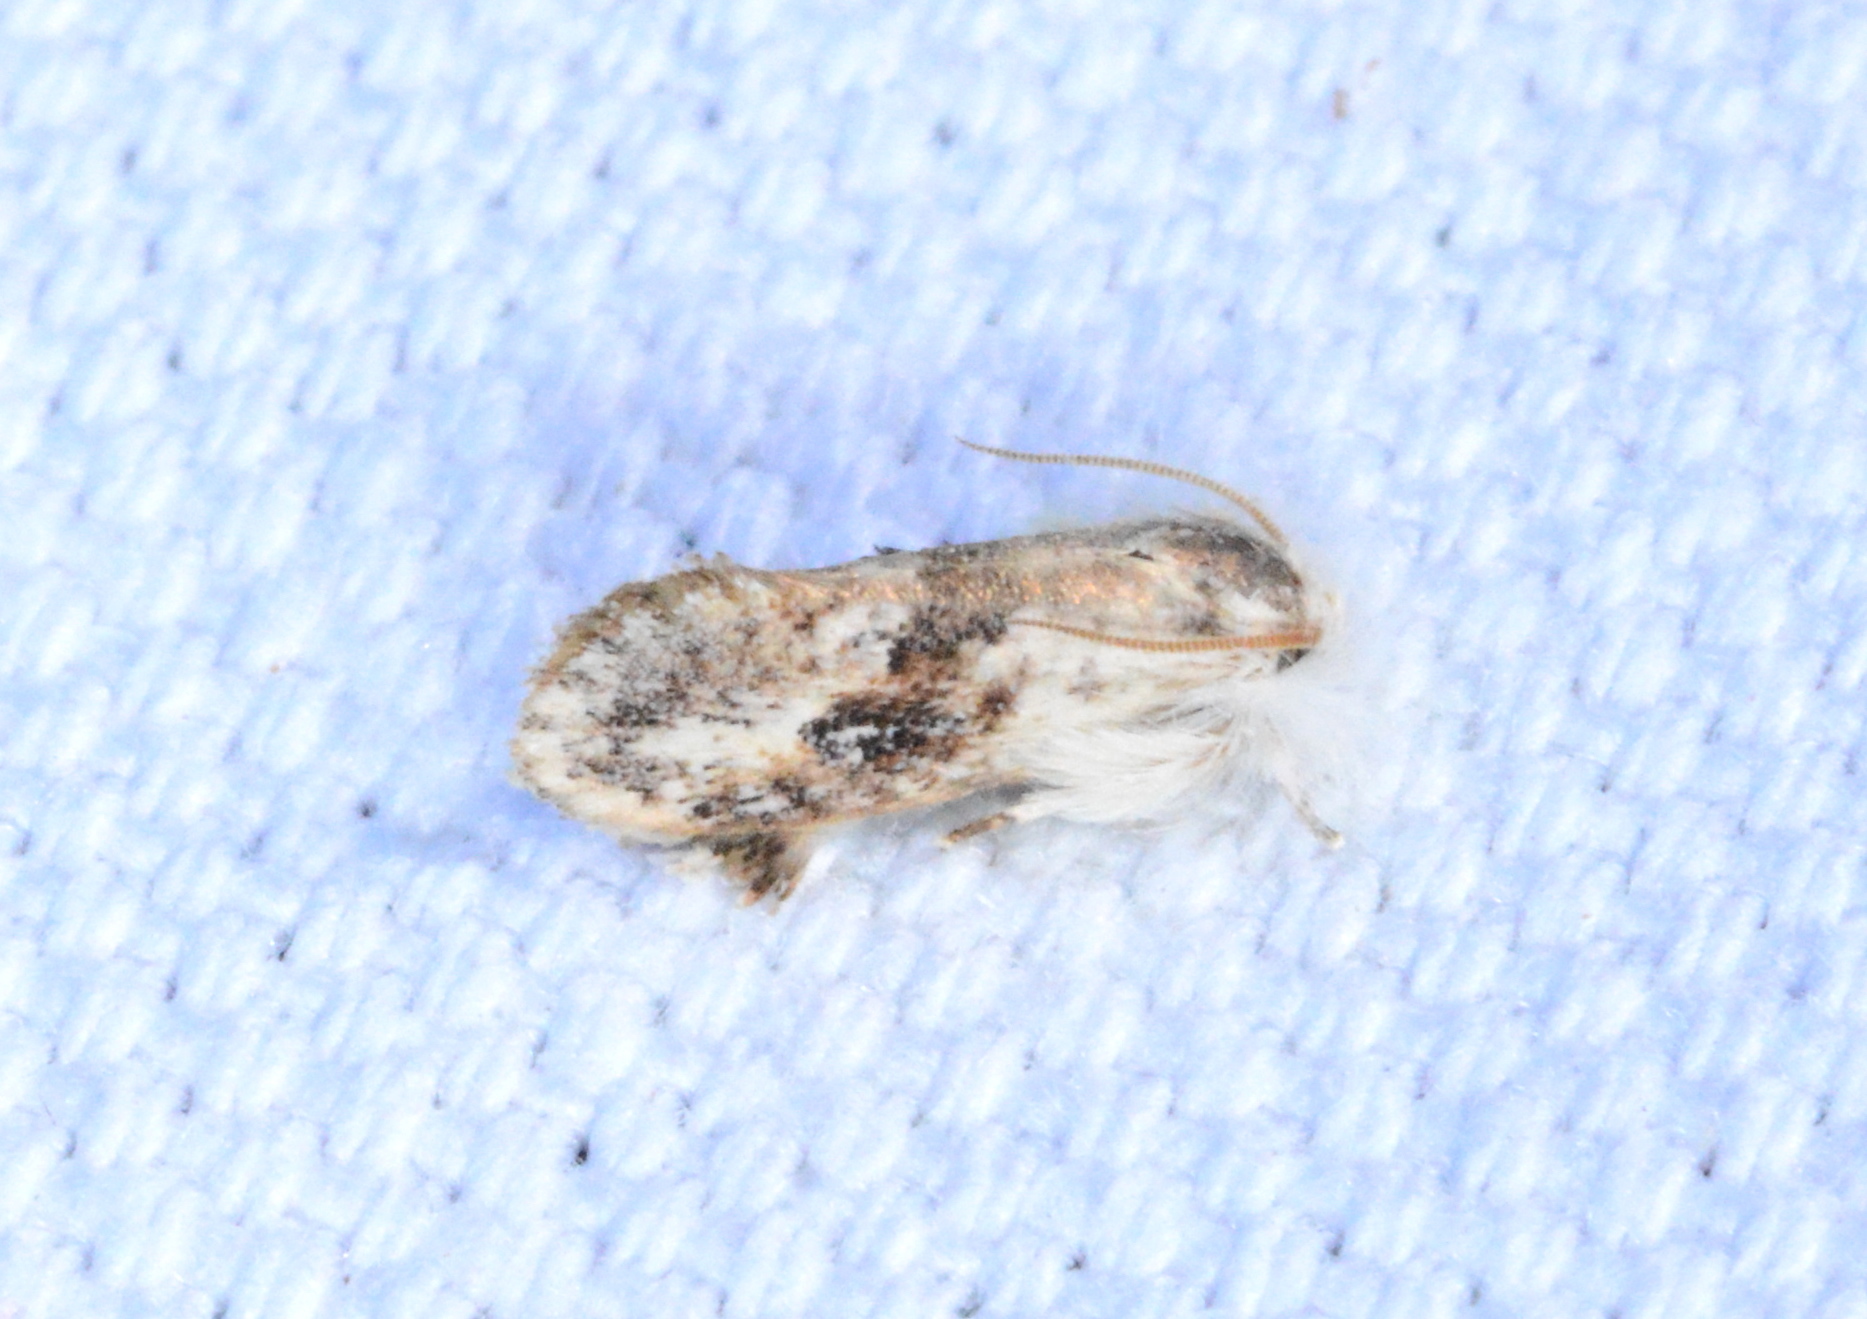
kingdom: Animalia
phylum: Arthropoda
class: Insecta
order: Lepidoptera
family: Tineidae
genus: Acrolophus
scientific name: Acrolophus mycetophagus
